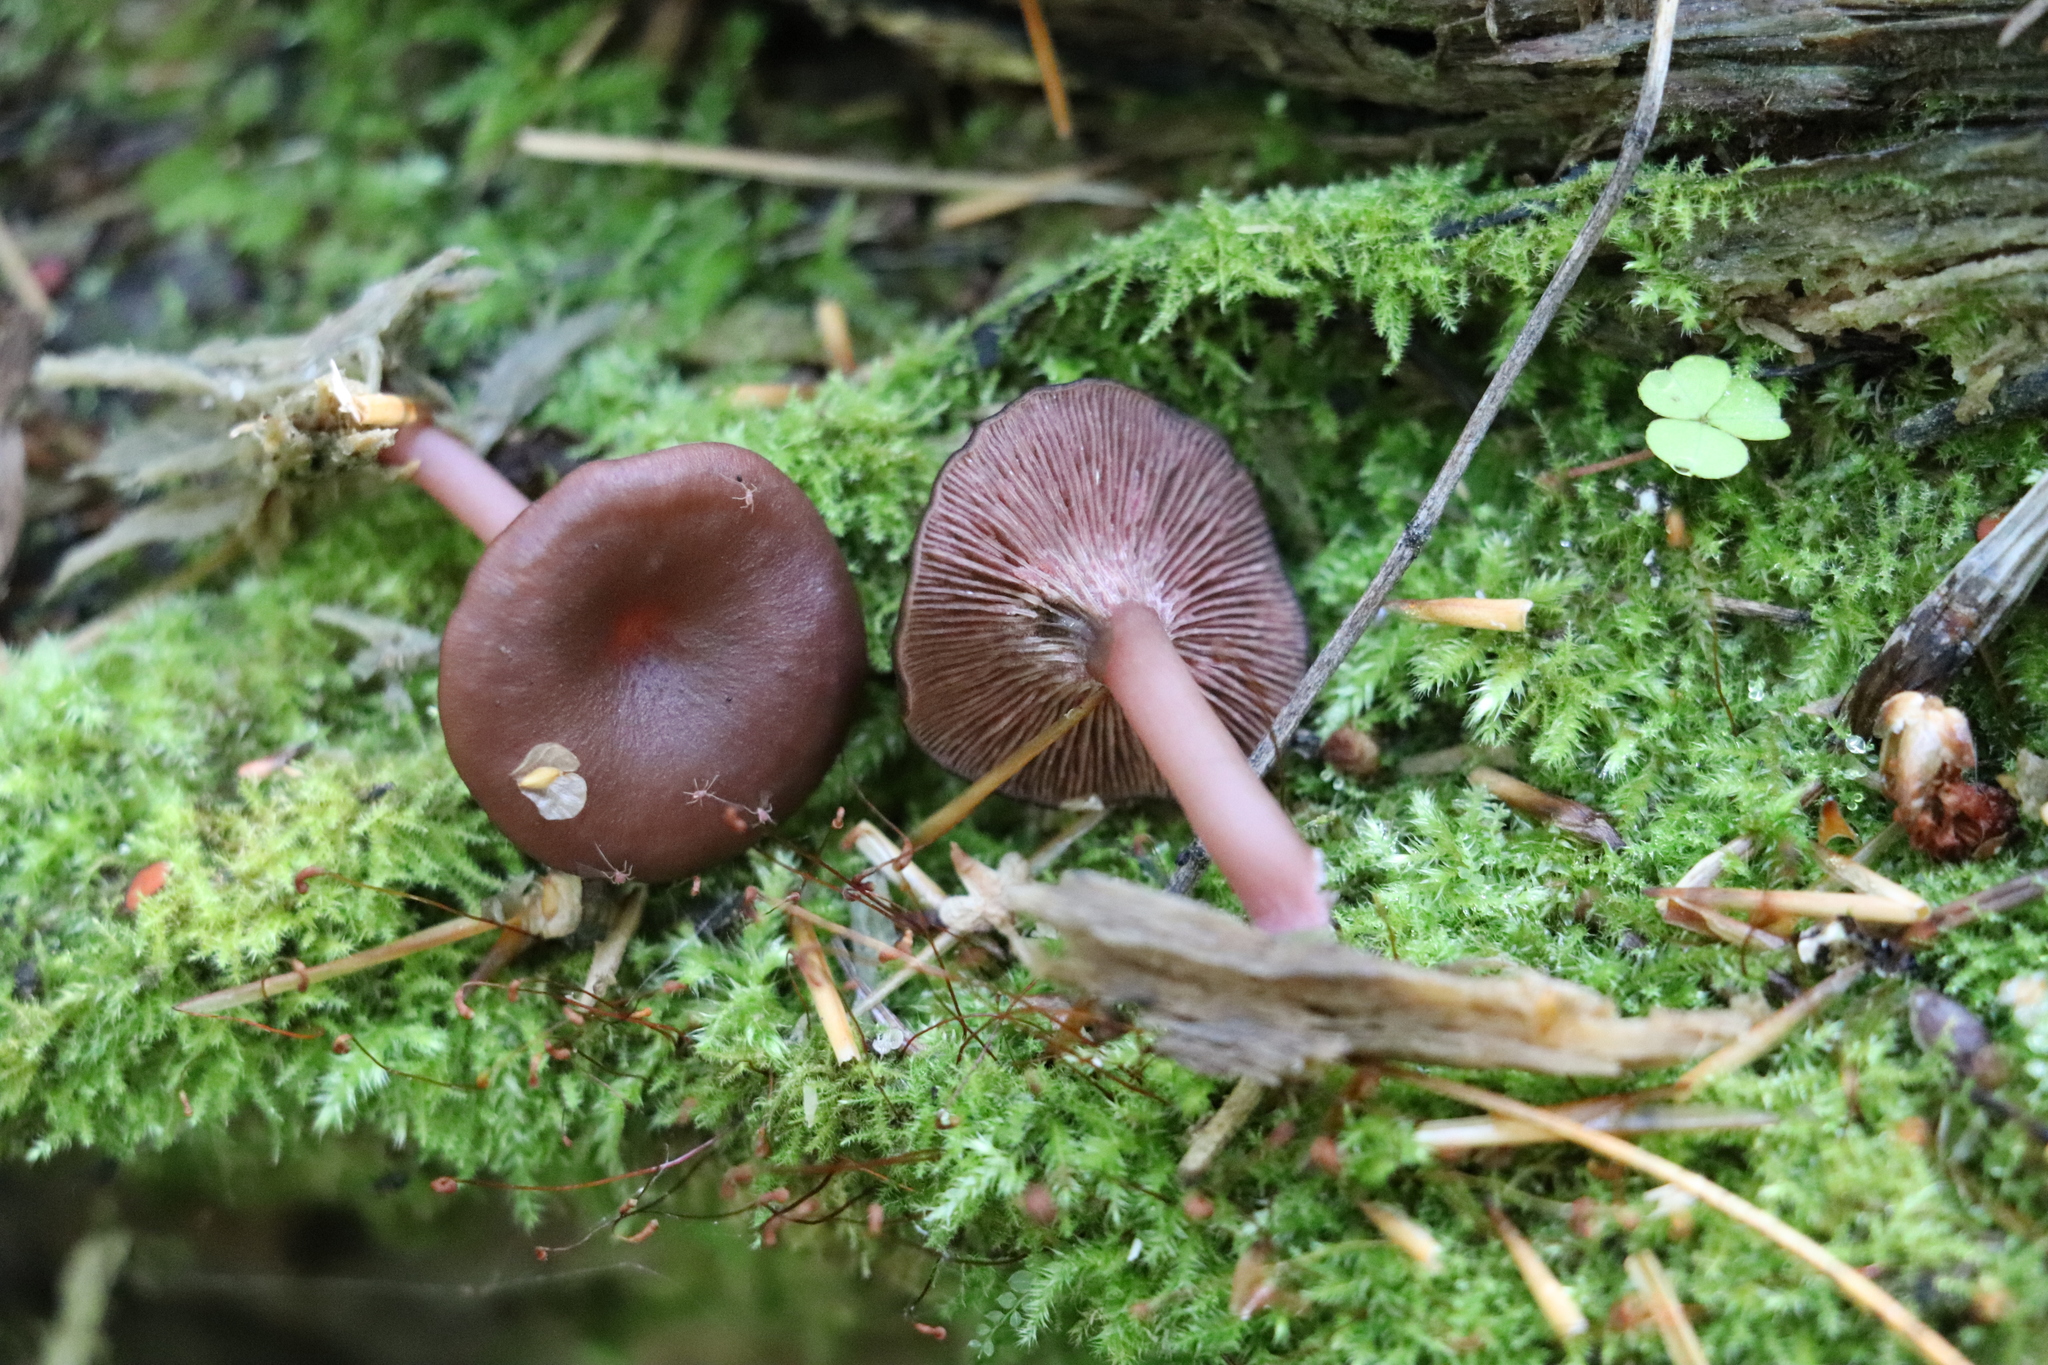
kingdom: Fungi
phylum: Basidiomycota
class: Agaricomycetes
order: Agaricales
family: Hygrophoraceae
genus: Arrhenia
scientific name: Arrhenia discorosea
